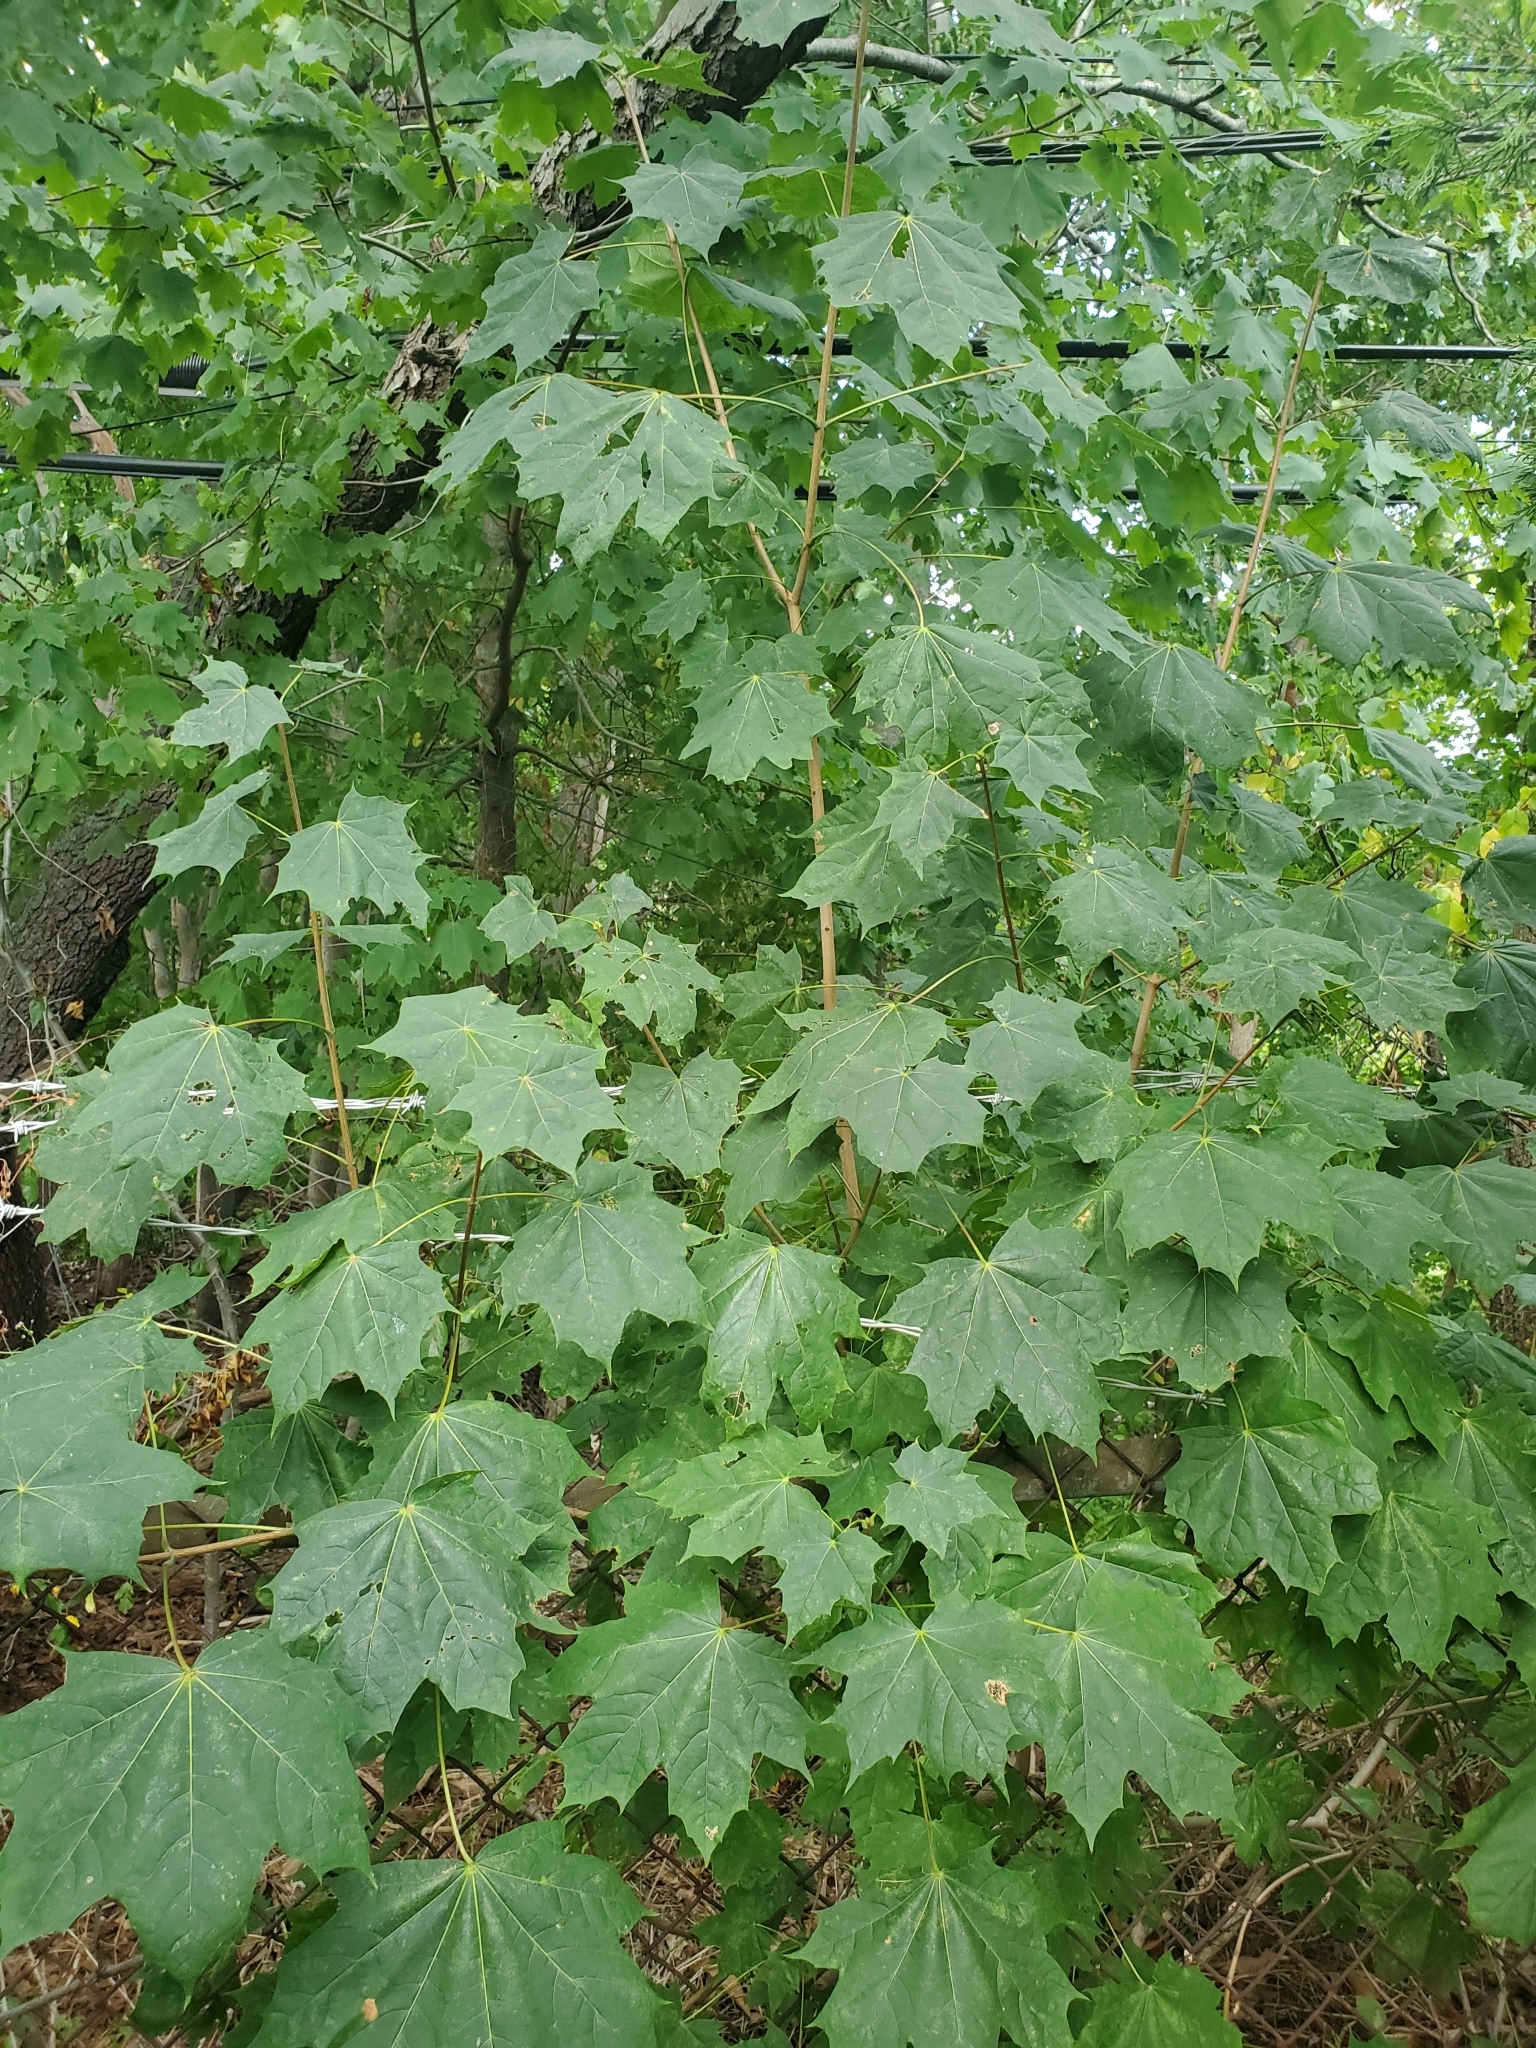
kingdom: Plantae
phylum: Tracheophyta
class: Magnoliopsida
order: Sapindales
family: Sapindaceae
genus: Acer
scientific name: Acer platanoides
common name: Norway maple
